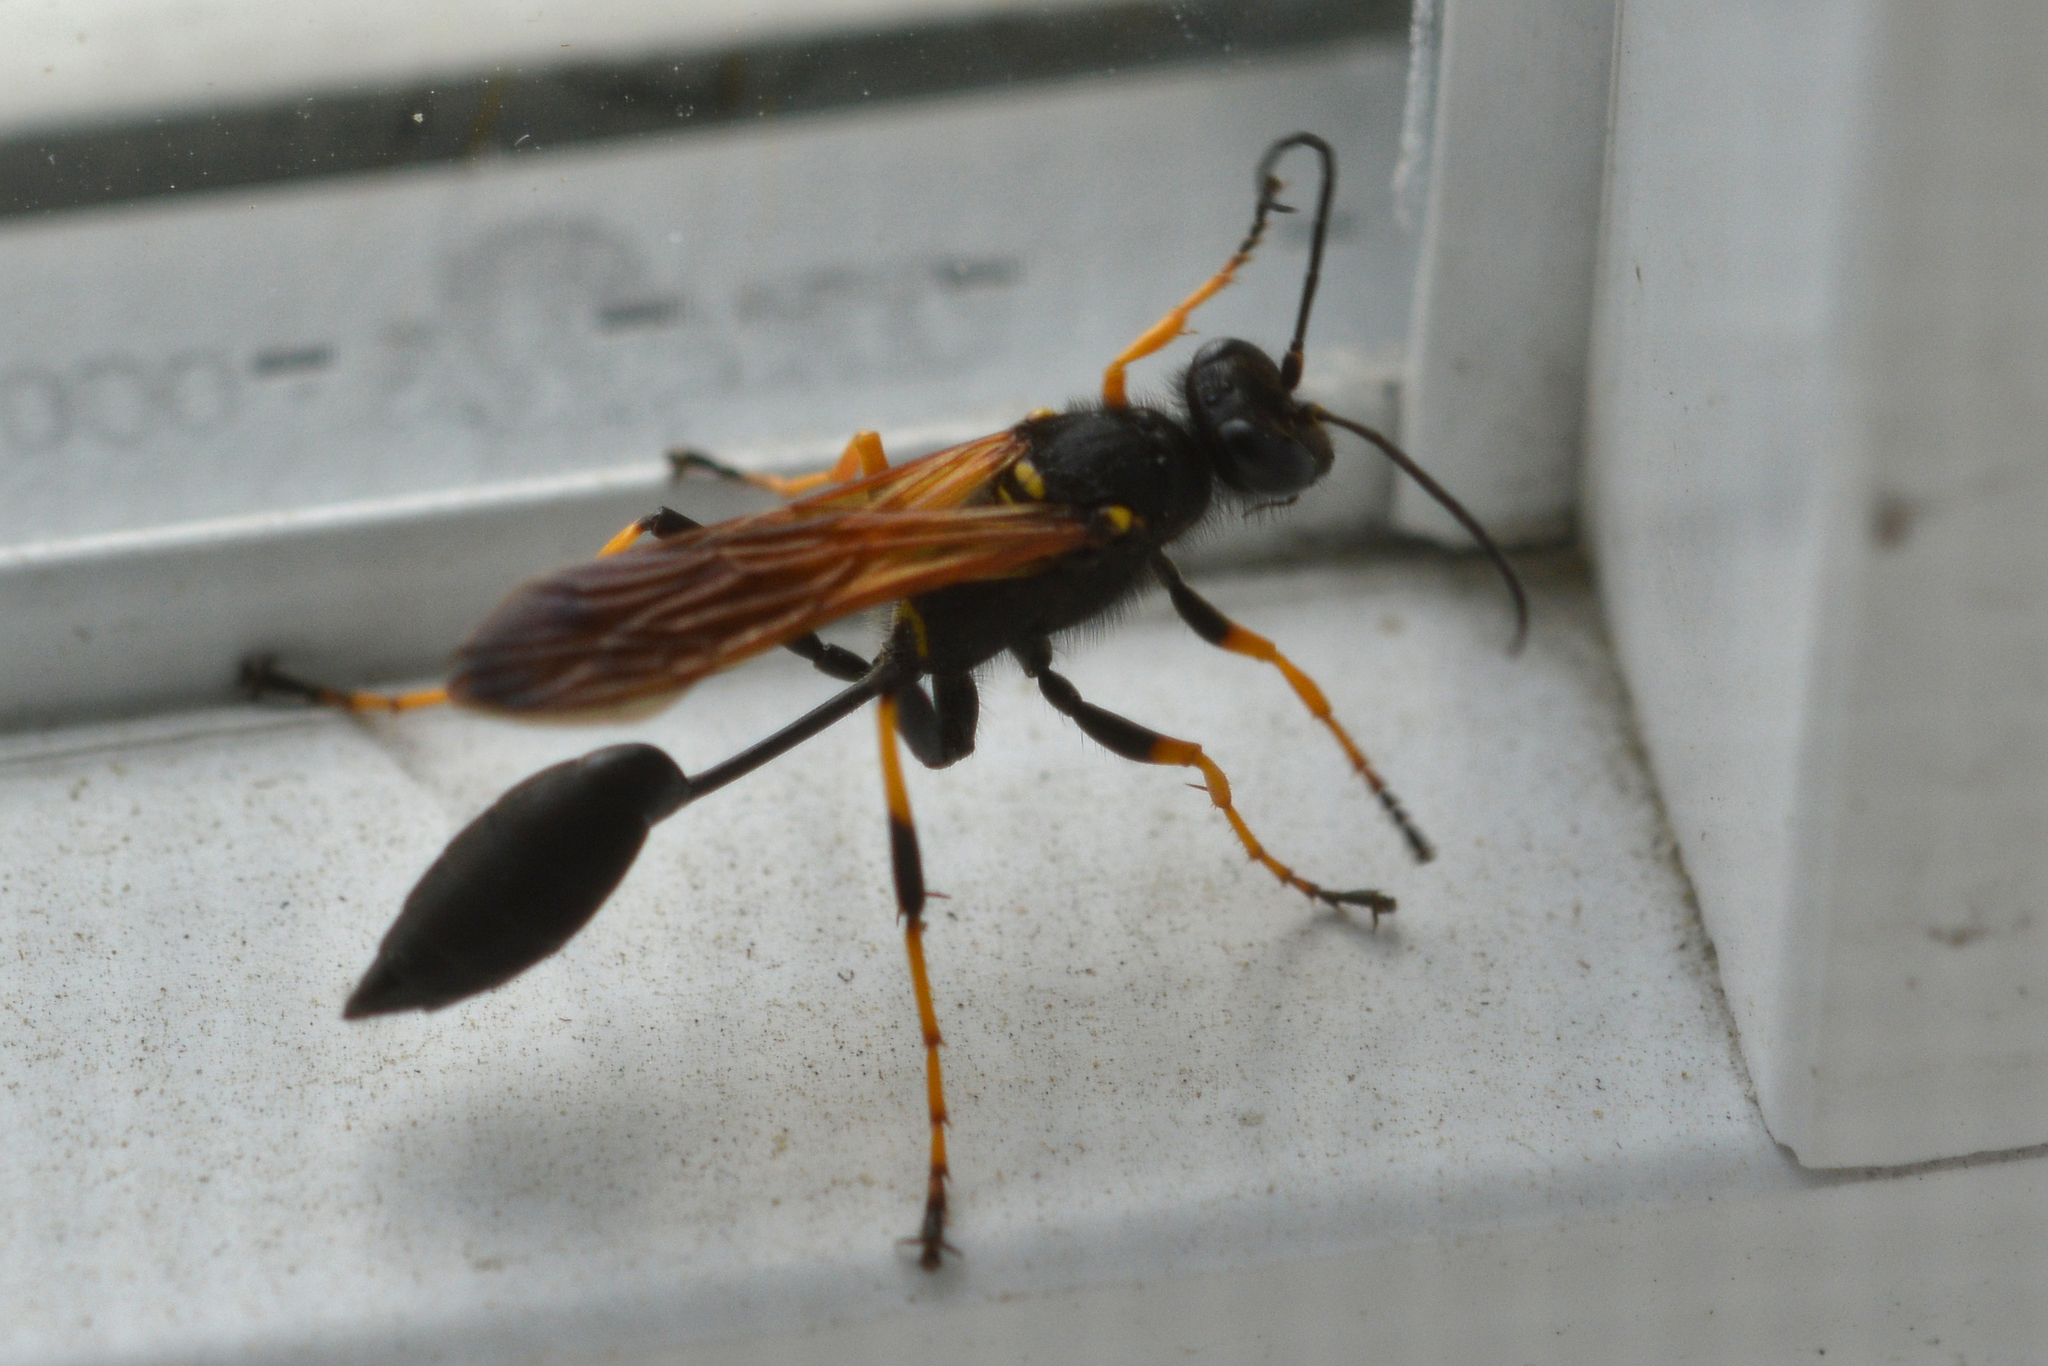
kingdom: Animalia
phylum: Arthropoda
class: Insecta
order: Hymenoptera
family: Sphecidae
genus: Sceliphron
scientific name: Sceliphron caementarium
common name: Mud dauber
